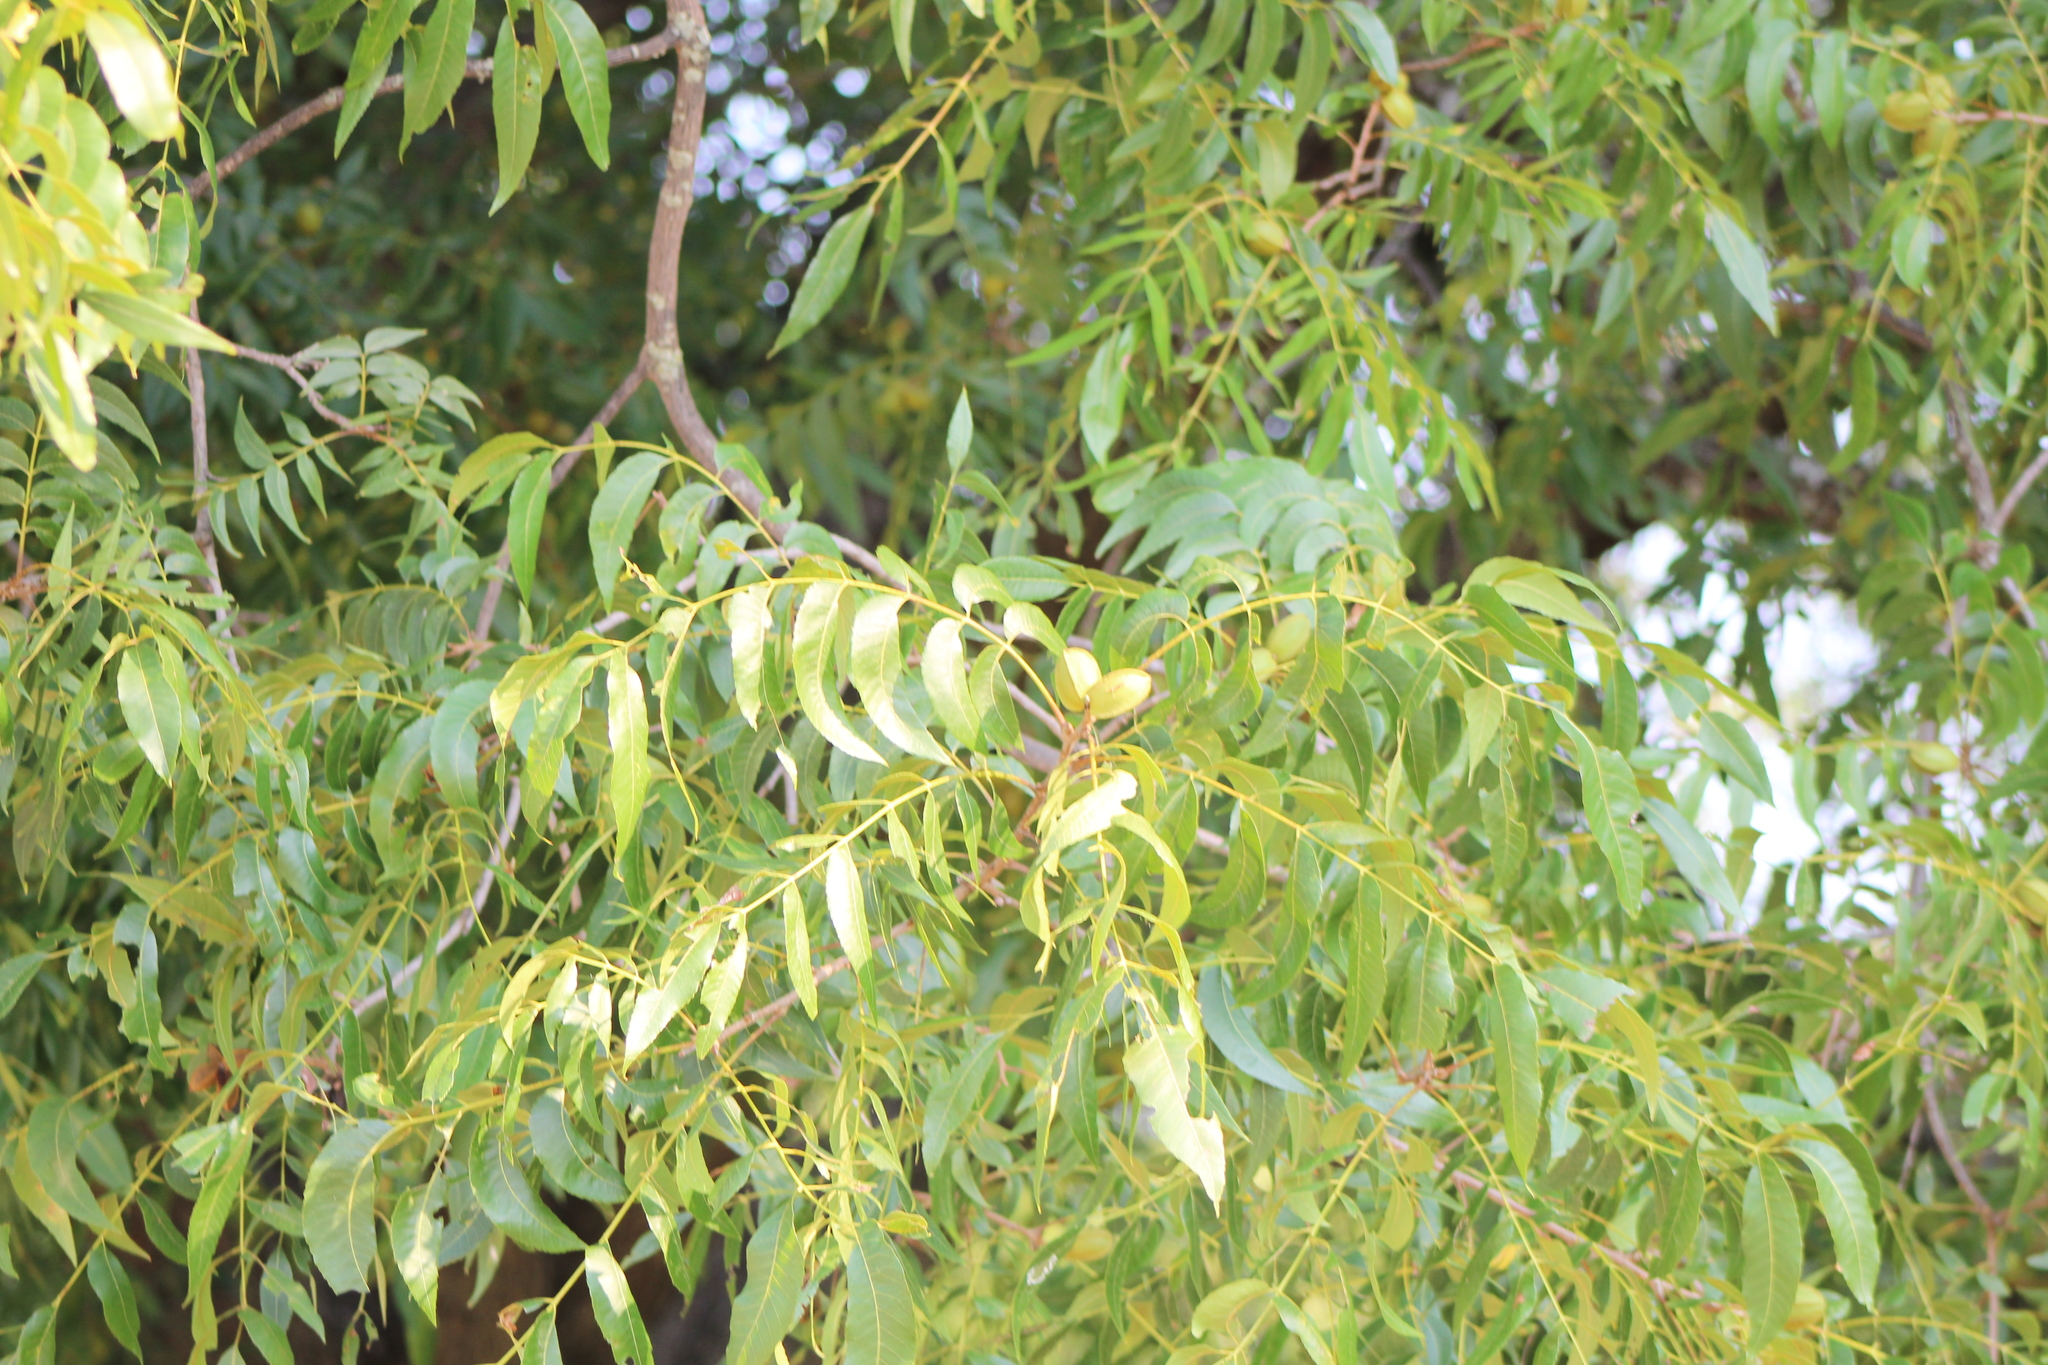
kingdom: Plantae
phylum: Tracheophyta
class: Magnoliopsida
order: Fagales
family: Juglandaceae
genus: Carya
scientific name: Carya illinoinensis
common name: Pecan
